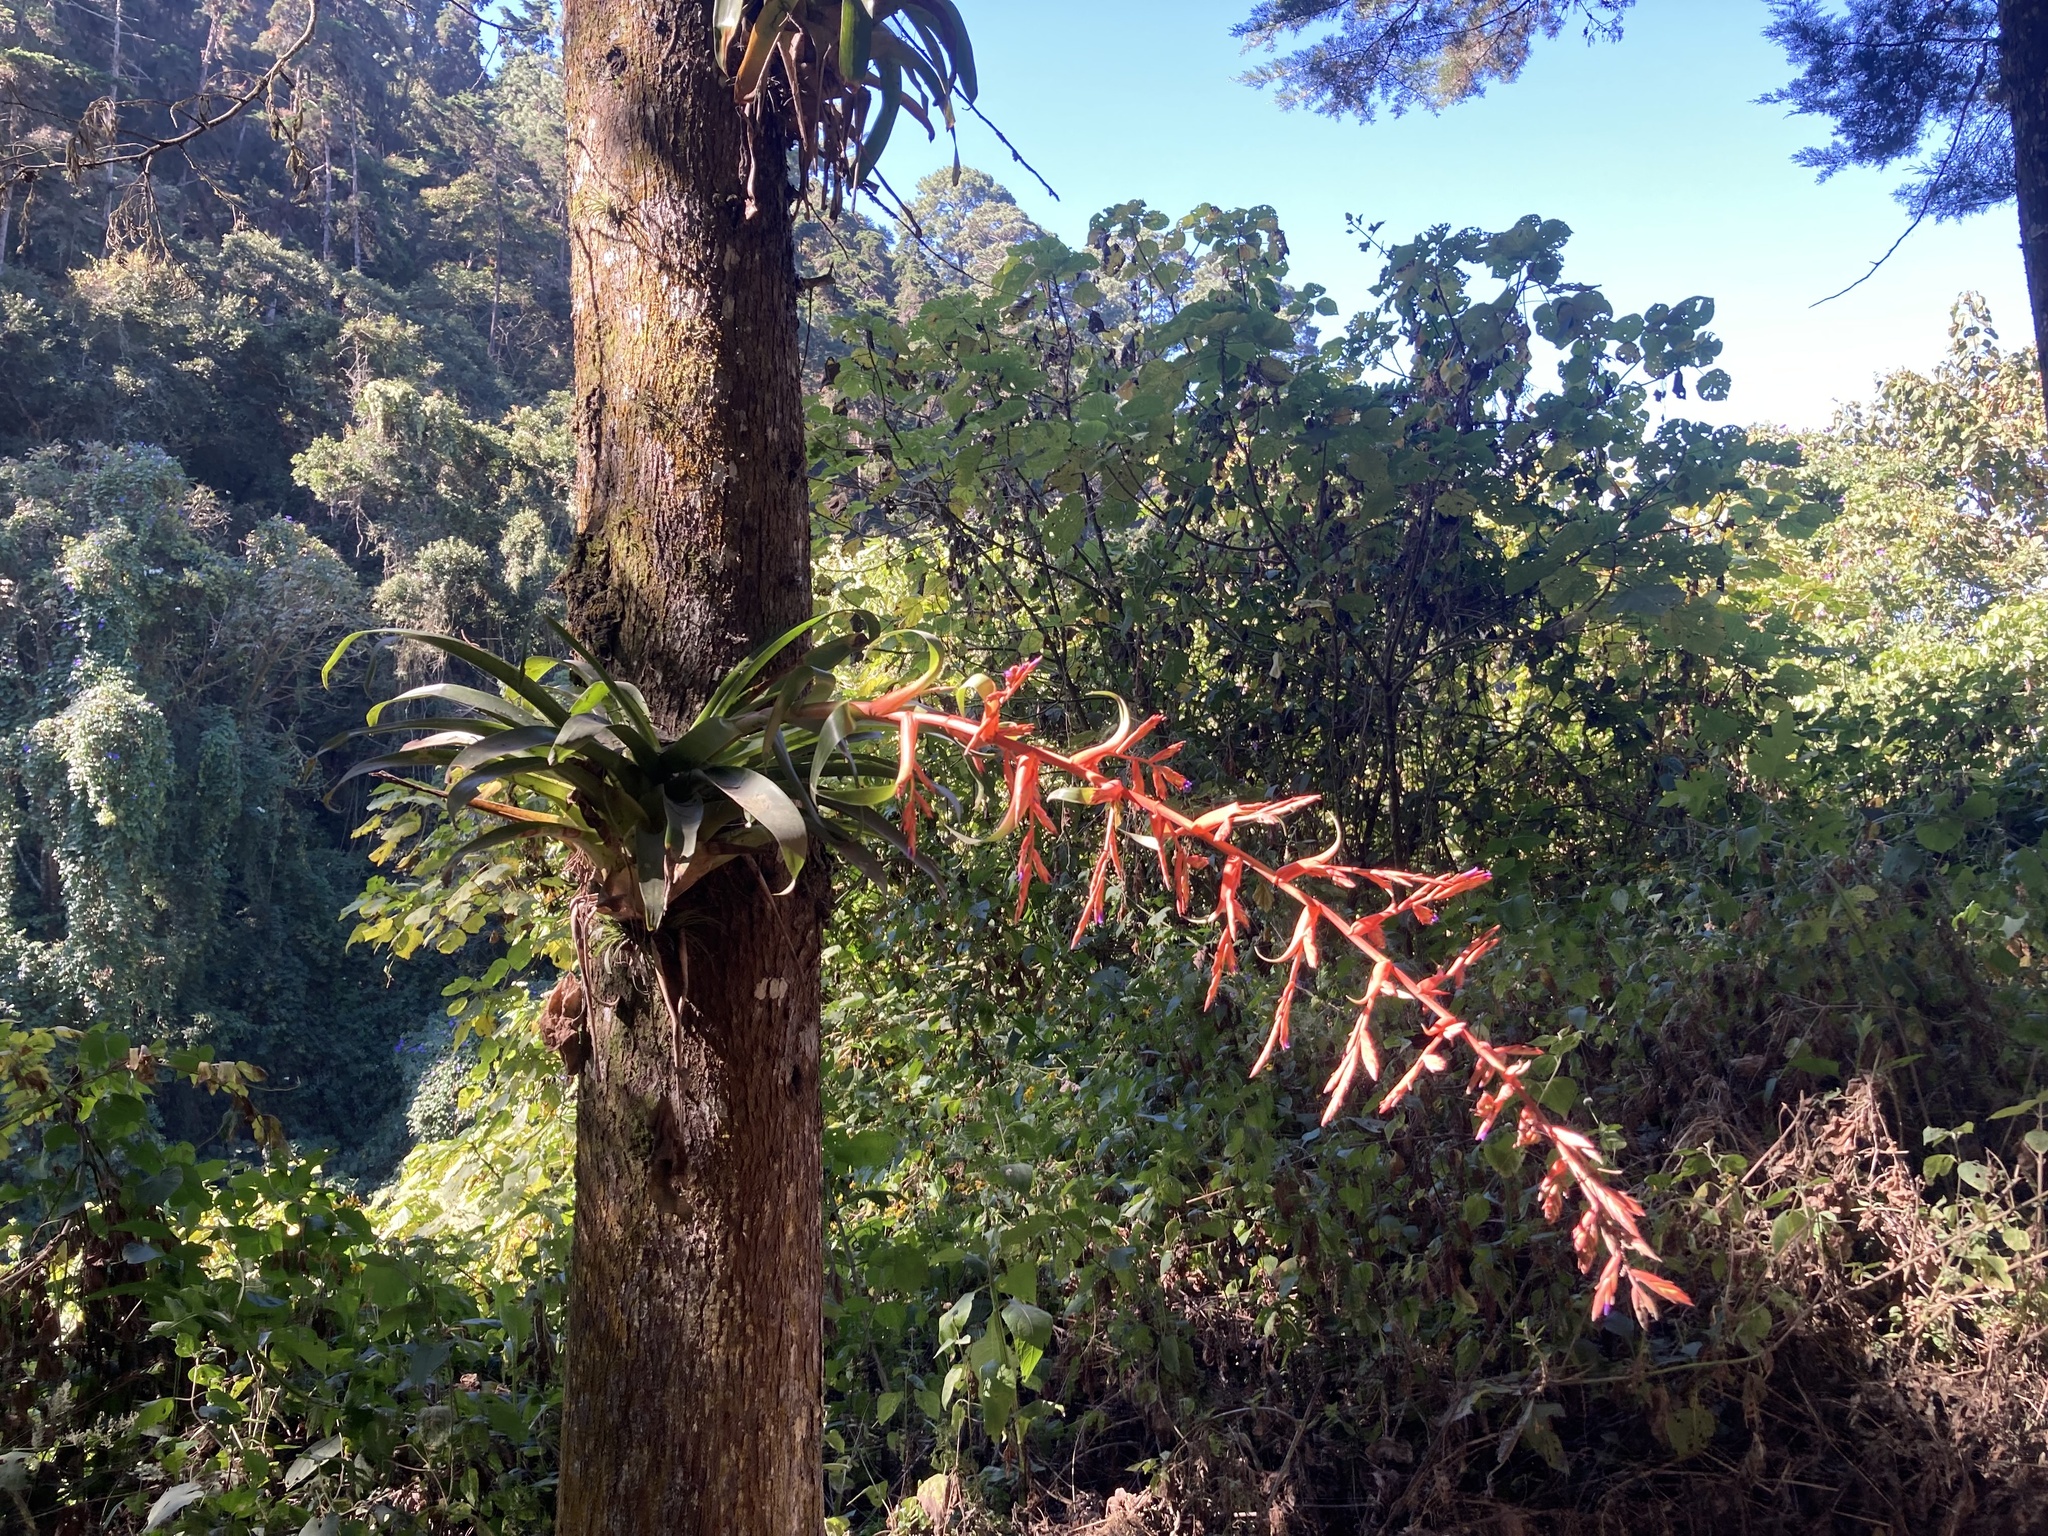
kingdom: Plantae
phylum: Tracheophyta
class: Liliopsida
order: Poales
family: Bromeliaceae
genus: Tillandsia
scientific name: Tillandsia guatemalensis
